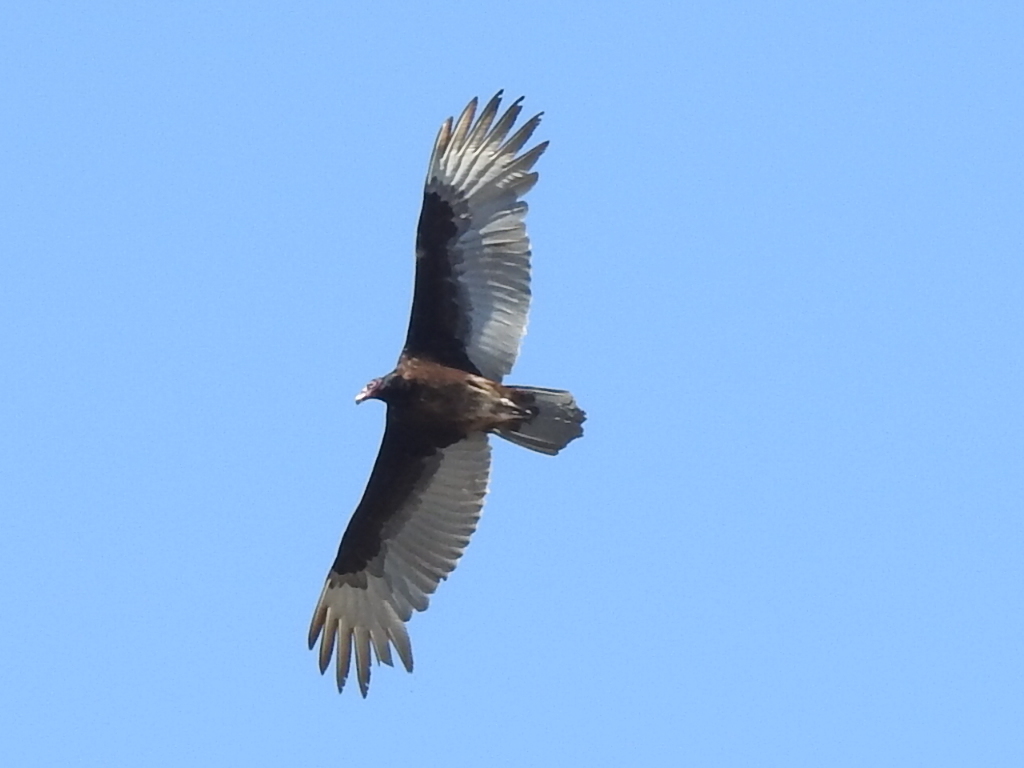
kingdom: Animalia
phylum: Chordata
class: Aves
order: Accipitriformes
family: Cathartidae
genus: Cathartes
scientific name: Cathartes aura
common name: Turkey vulture
